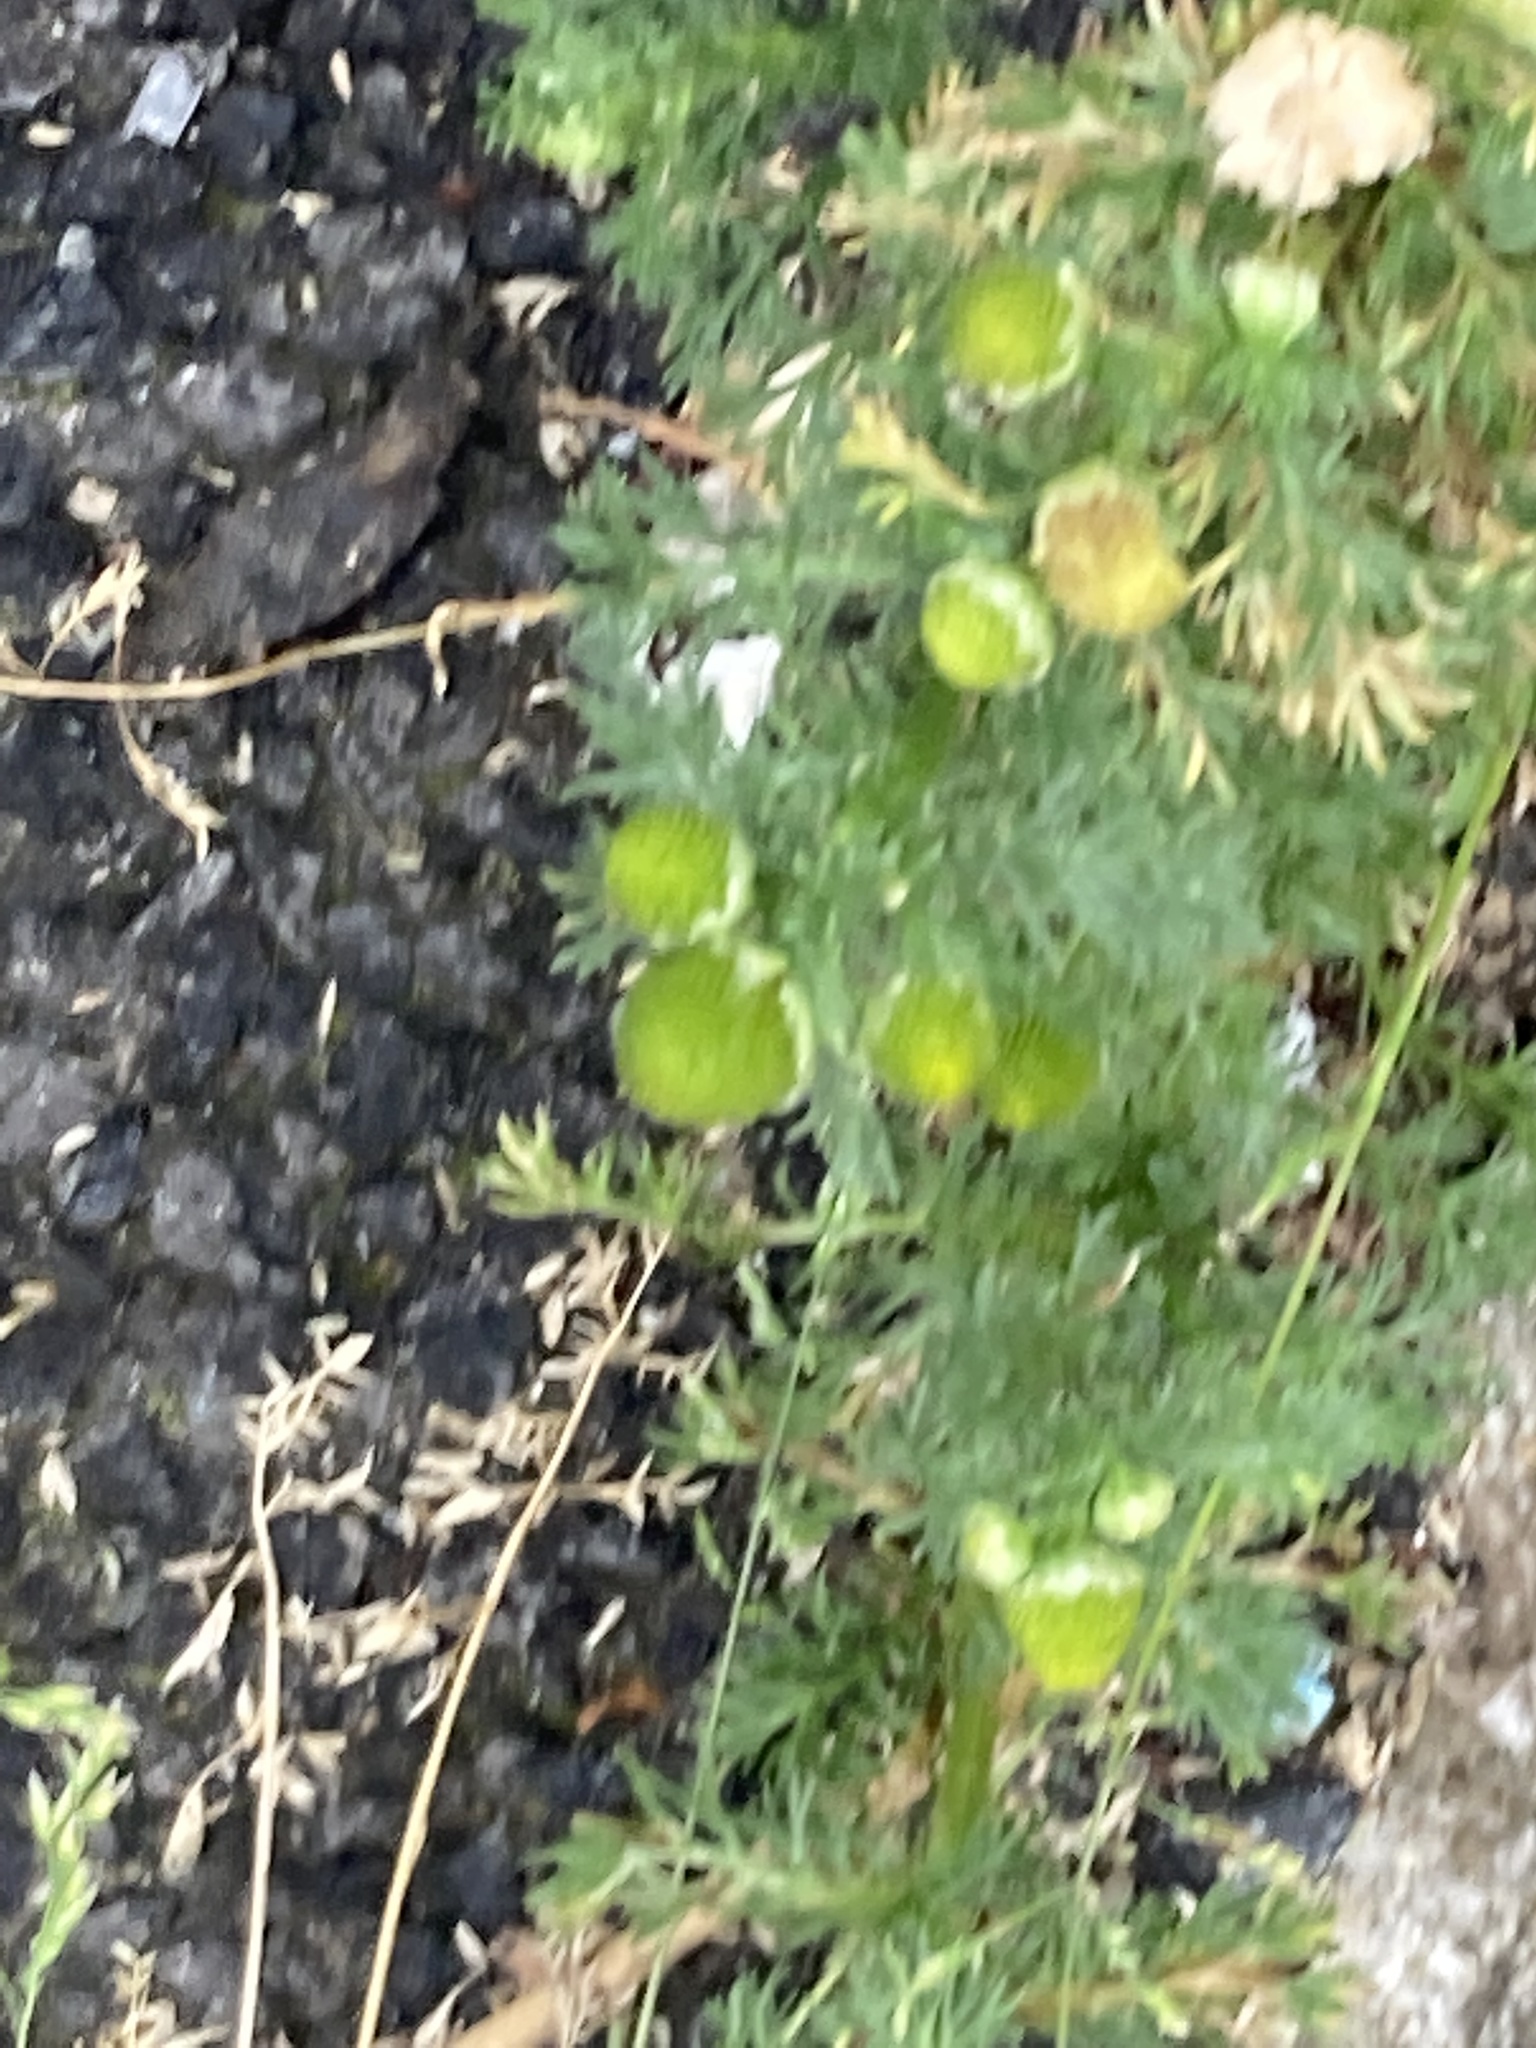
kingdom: Plantae
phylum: Tracheophyta
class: Magnoliopsida
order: Asterales
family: Asteraceae
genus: Matricaria
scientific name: Matricaria discoidea
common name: Disc mayweed
